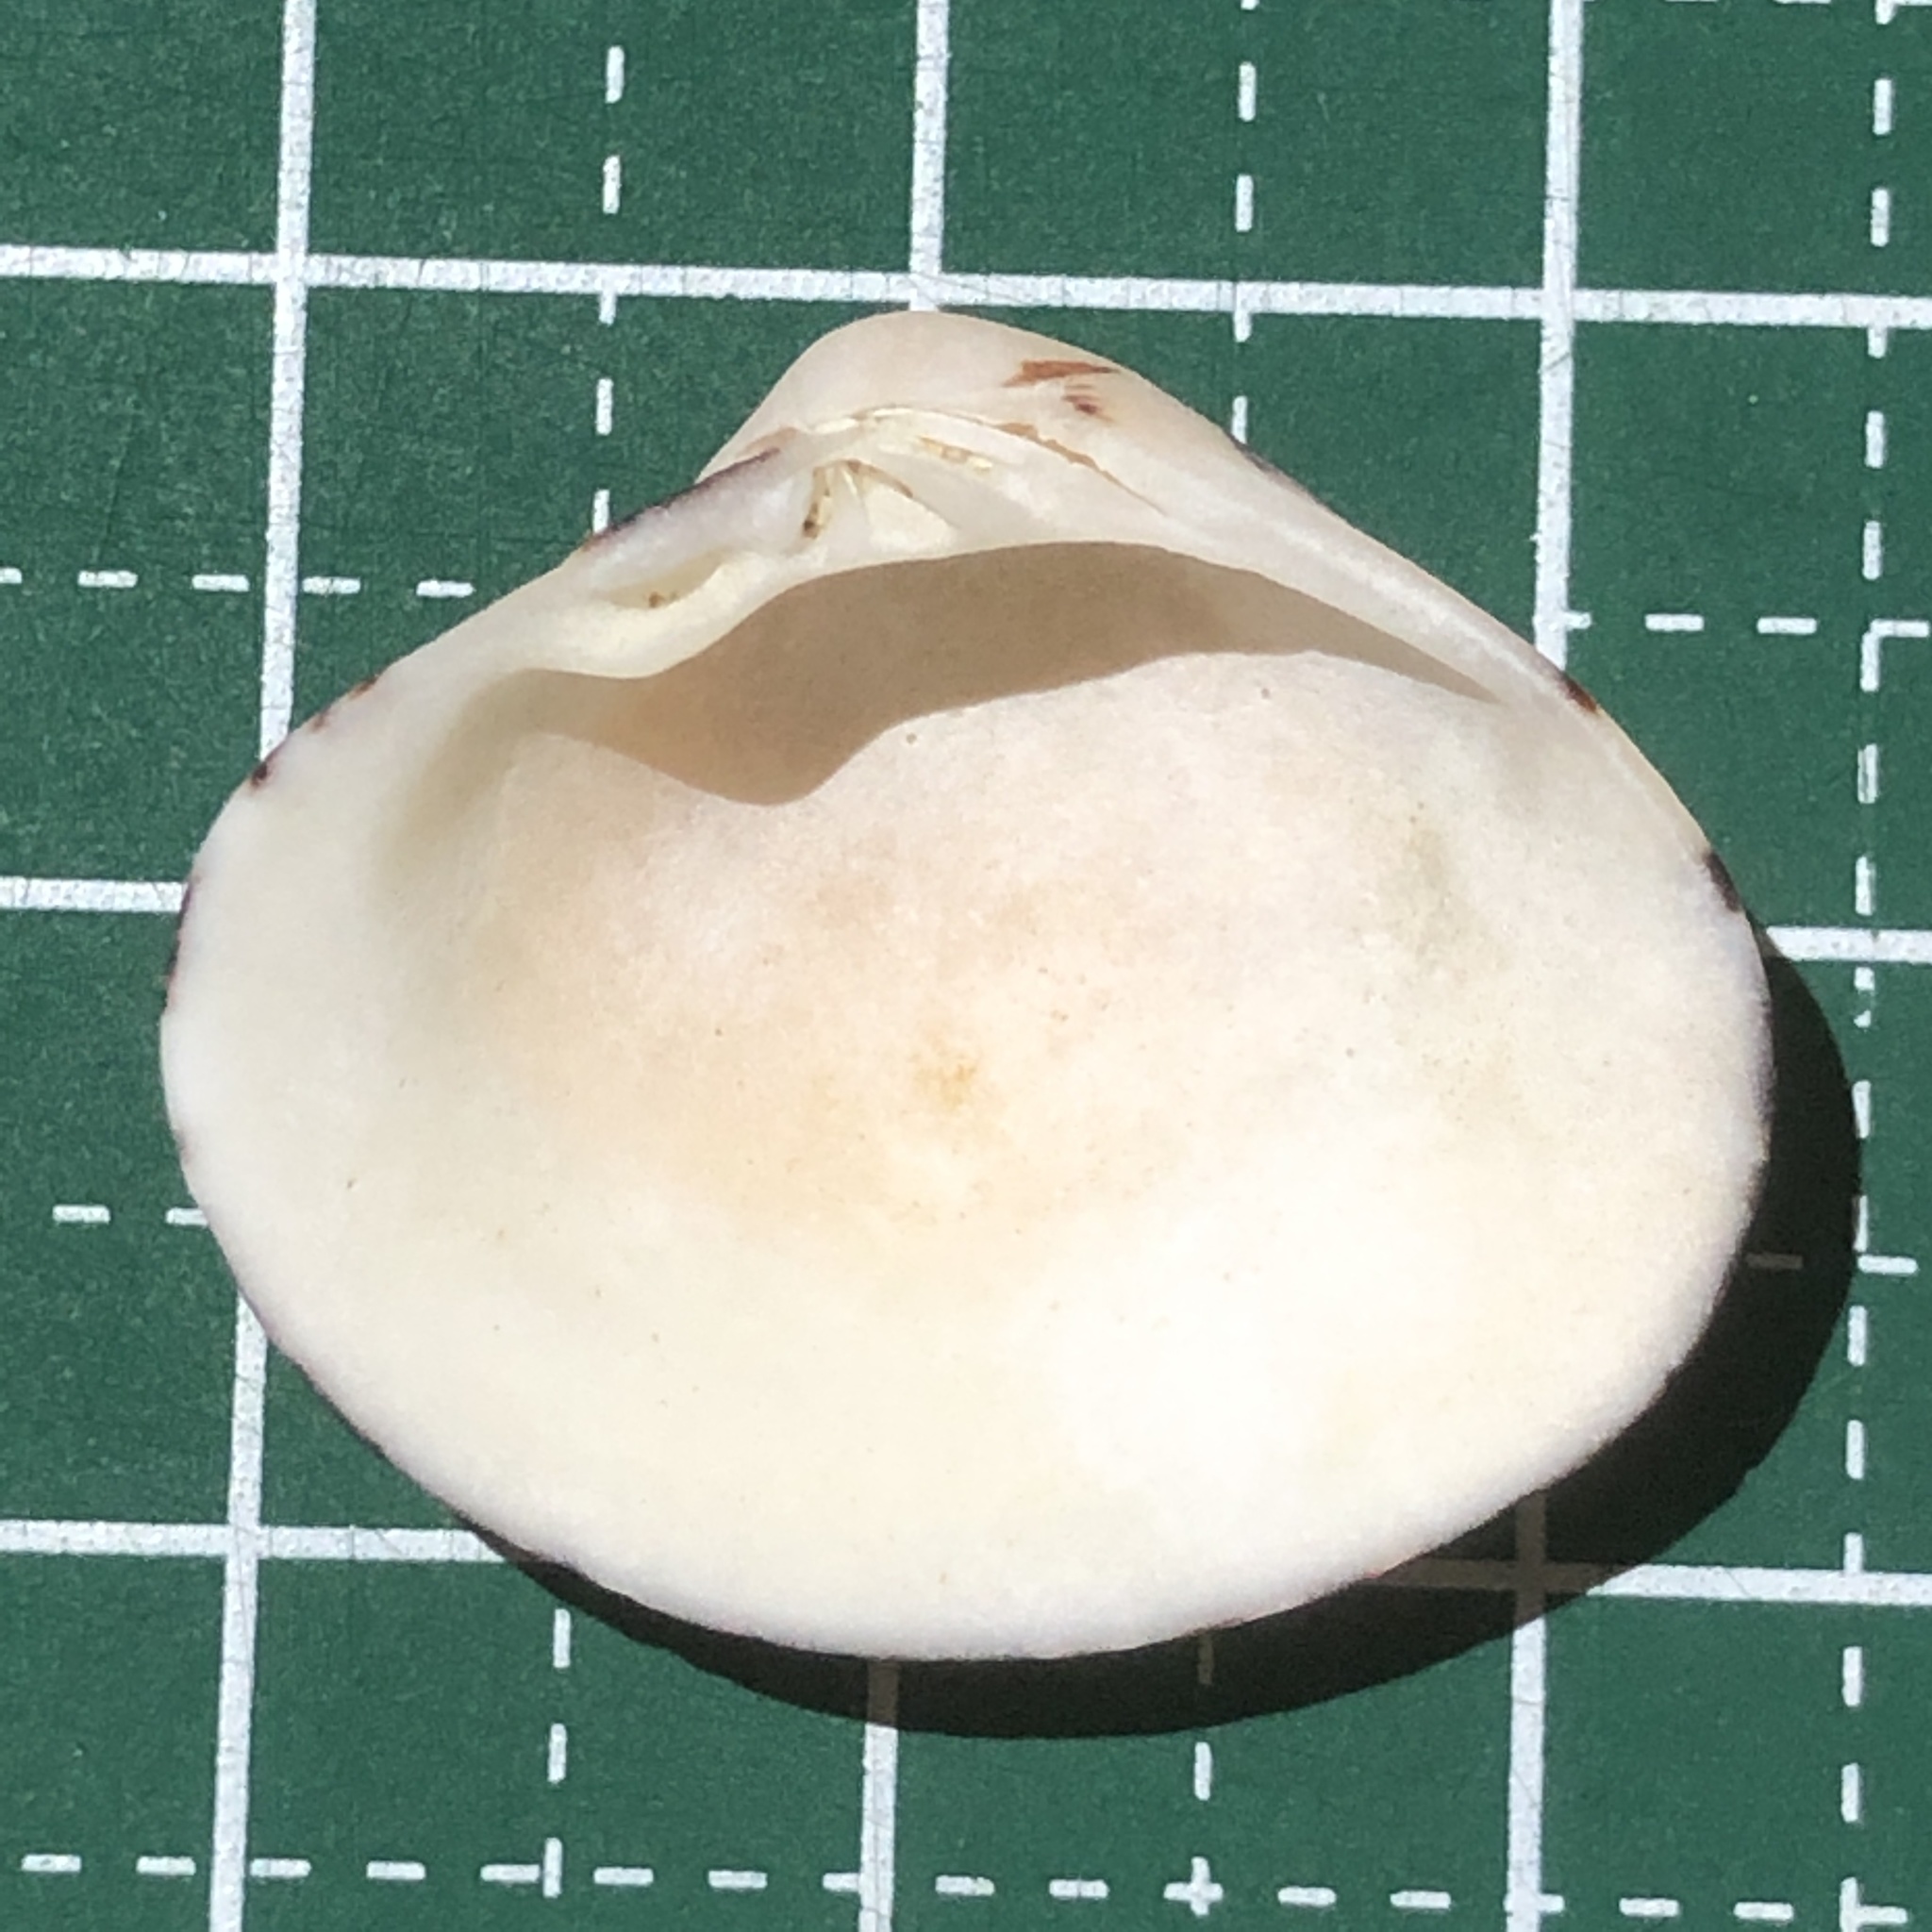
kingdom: Animalia
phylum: Mollusca
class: Bivalvia
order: Venerida
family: Veneridae
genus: Lioconcha
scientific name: Lioconcha fastigiata
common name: Clam
